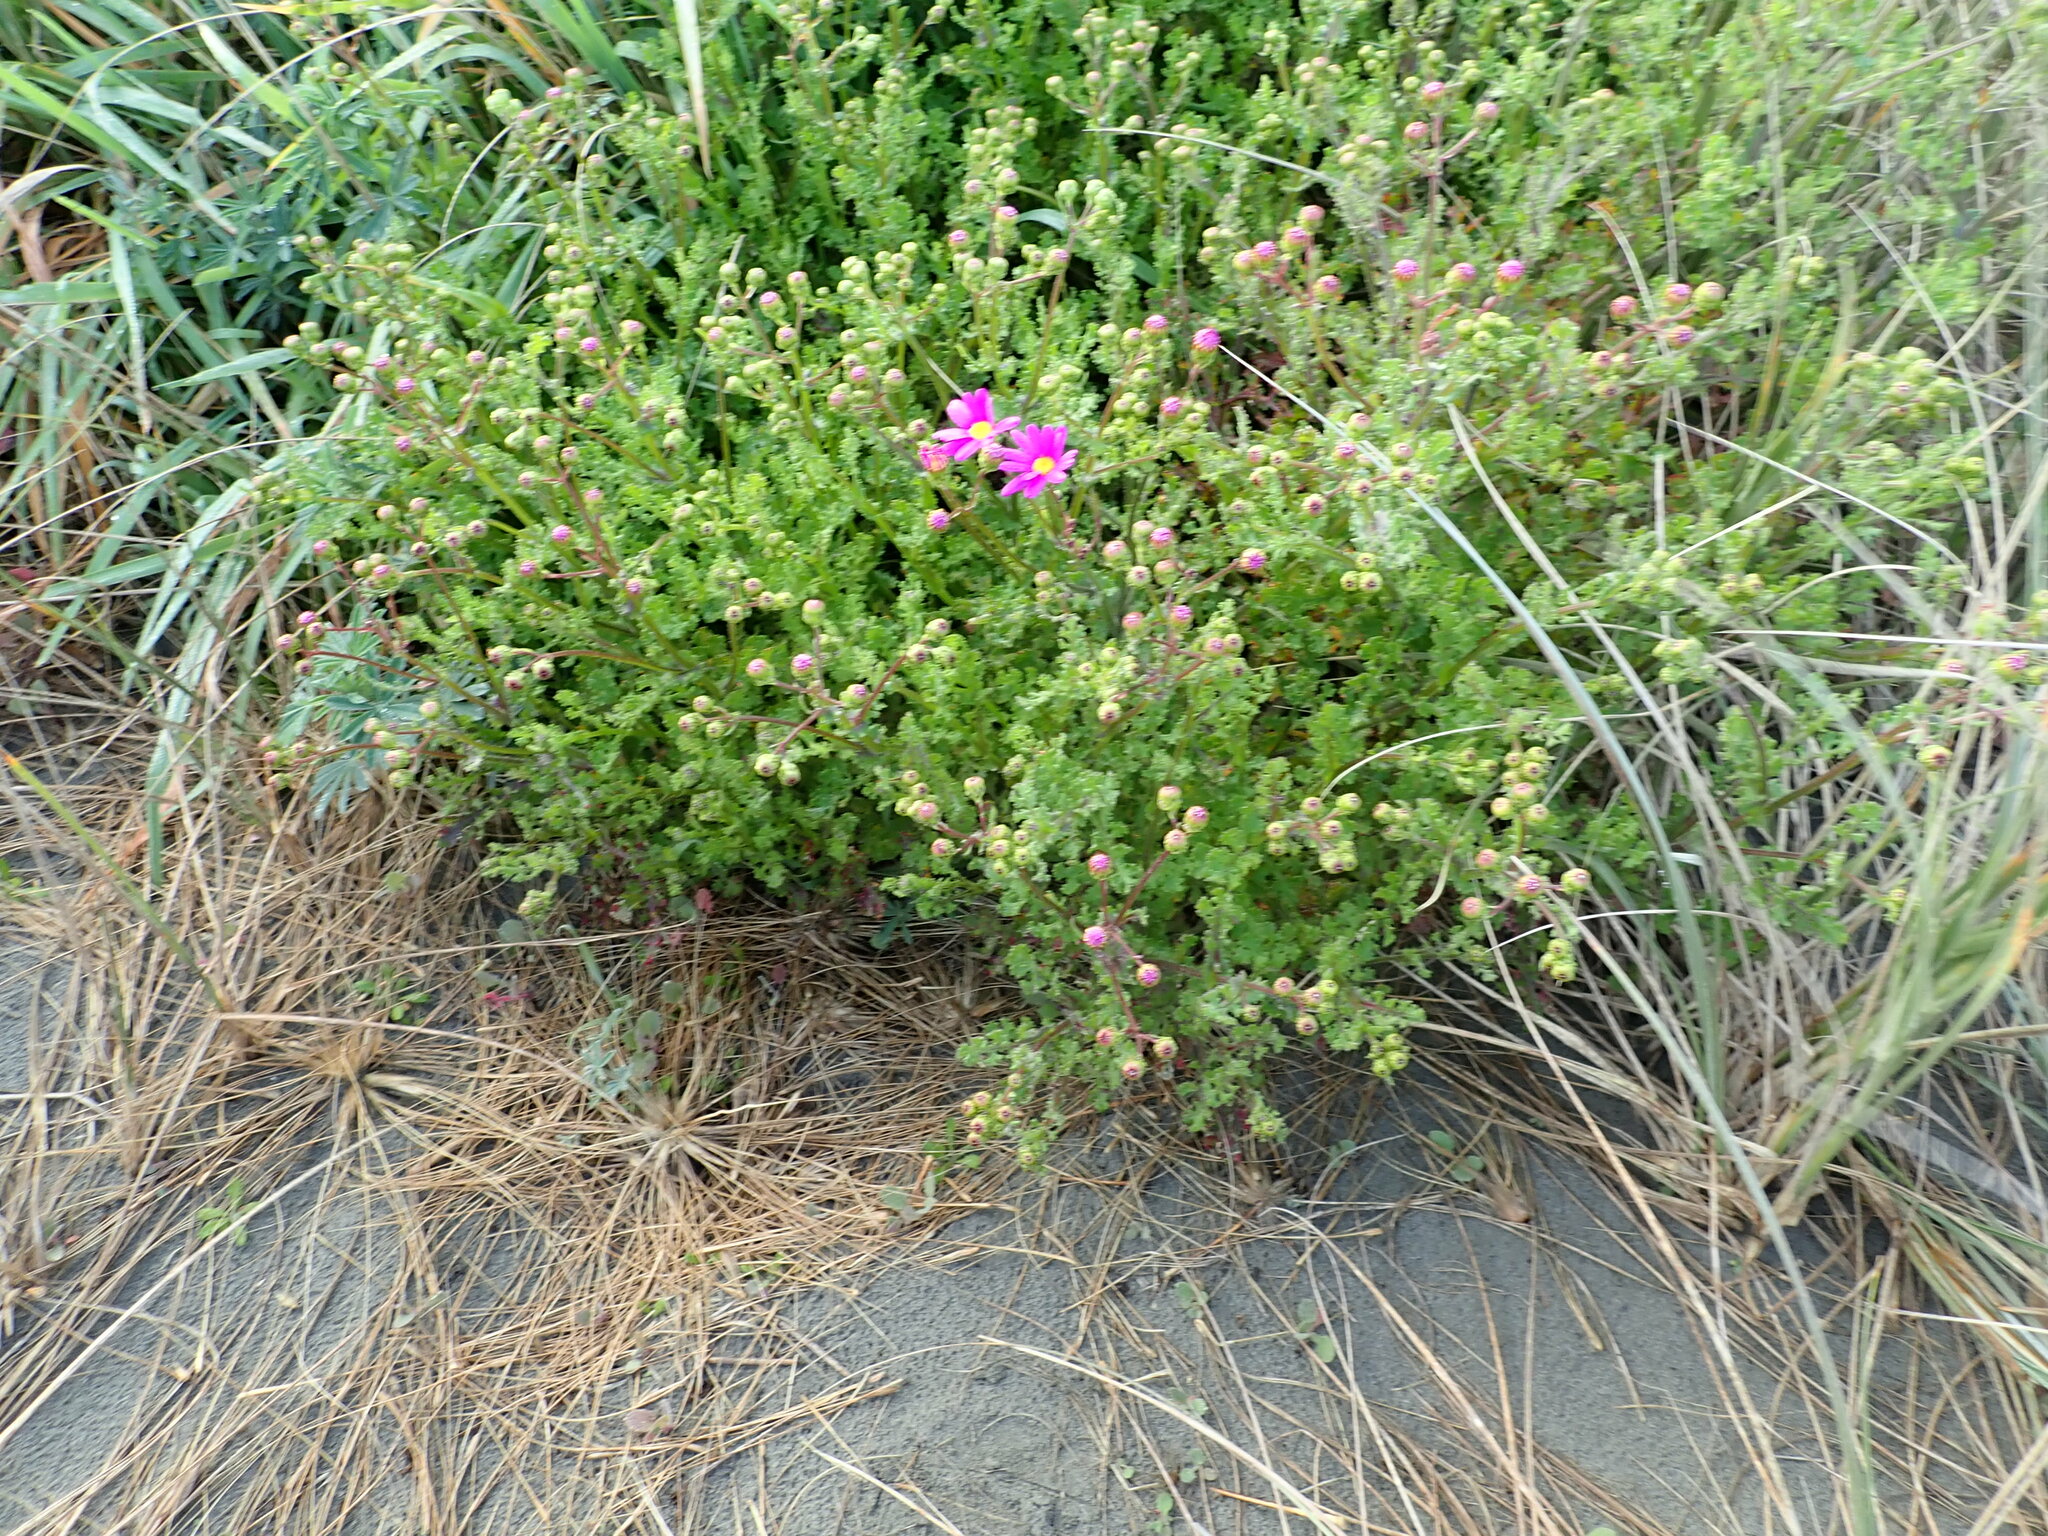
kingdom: Plantae
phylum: Tracheophyta
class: Magnoliopsida
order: Asterales
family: Asteraceae
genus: Senecio
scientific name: Senecio elegans
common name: Purple groundsel
